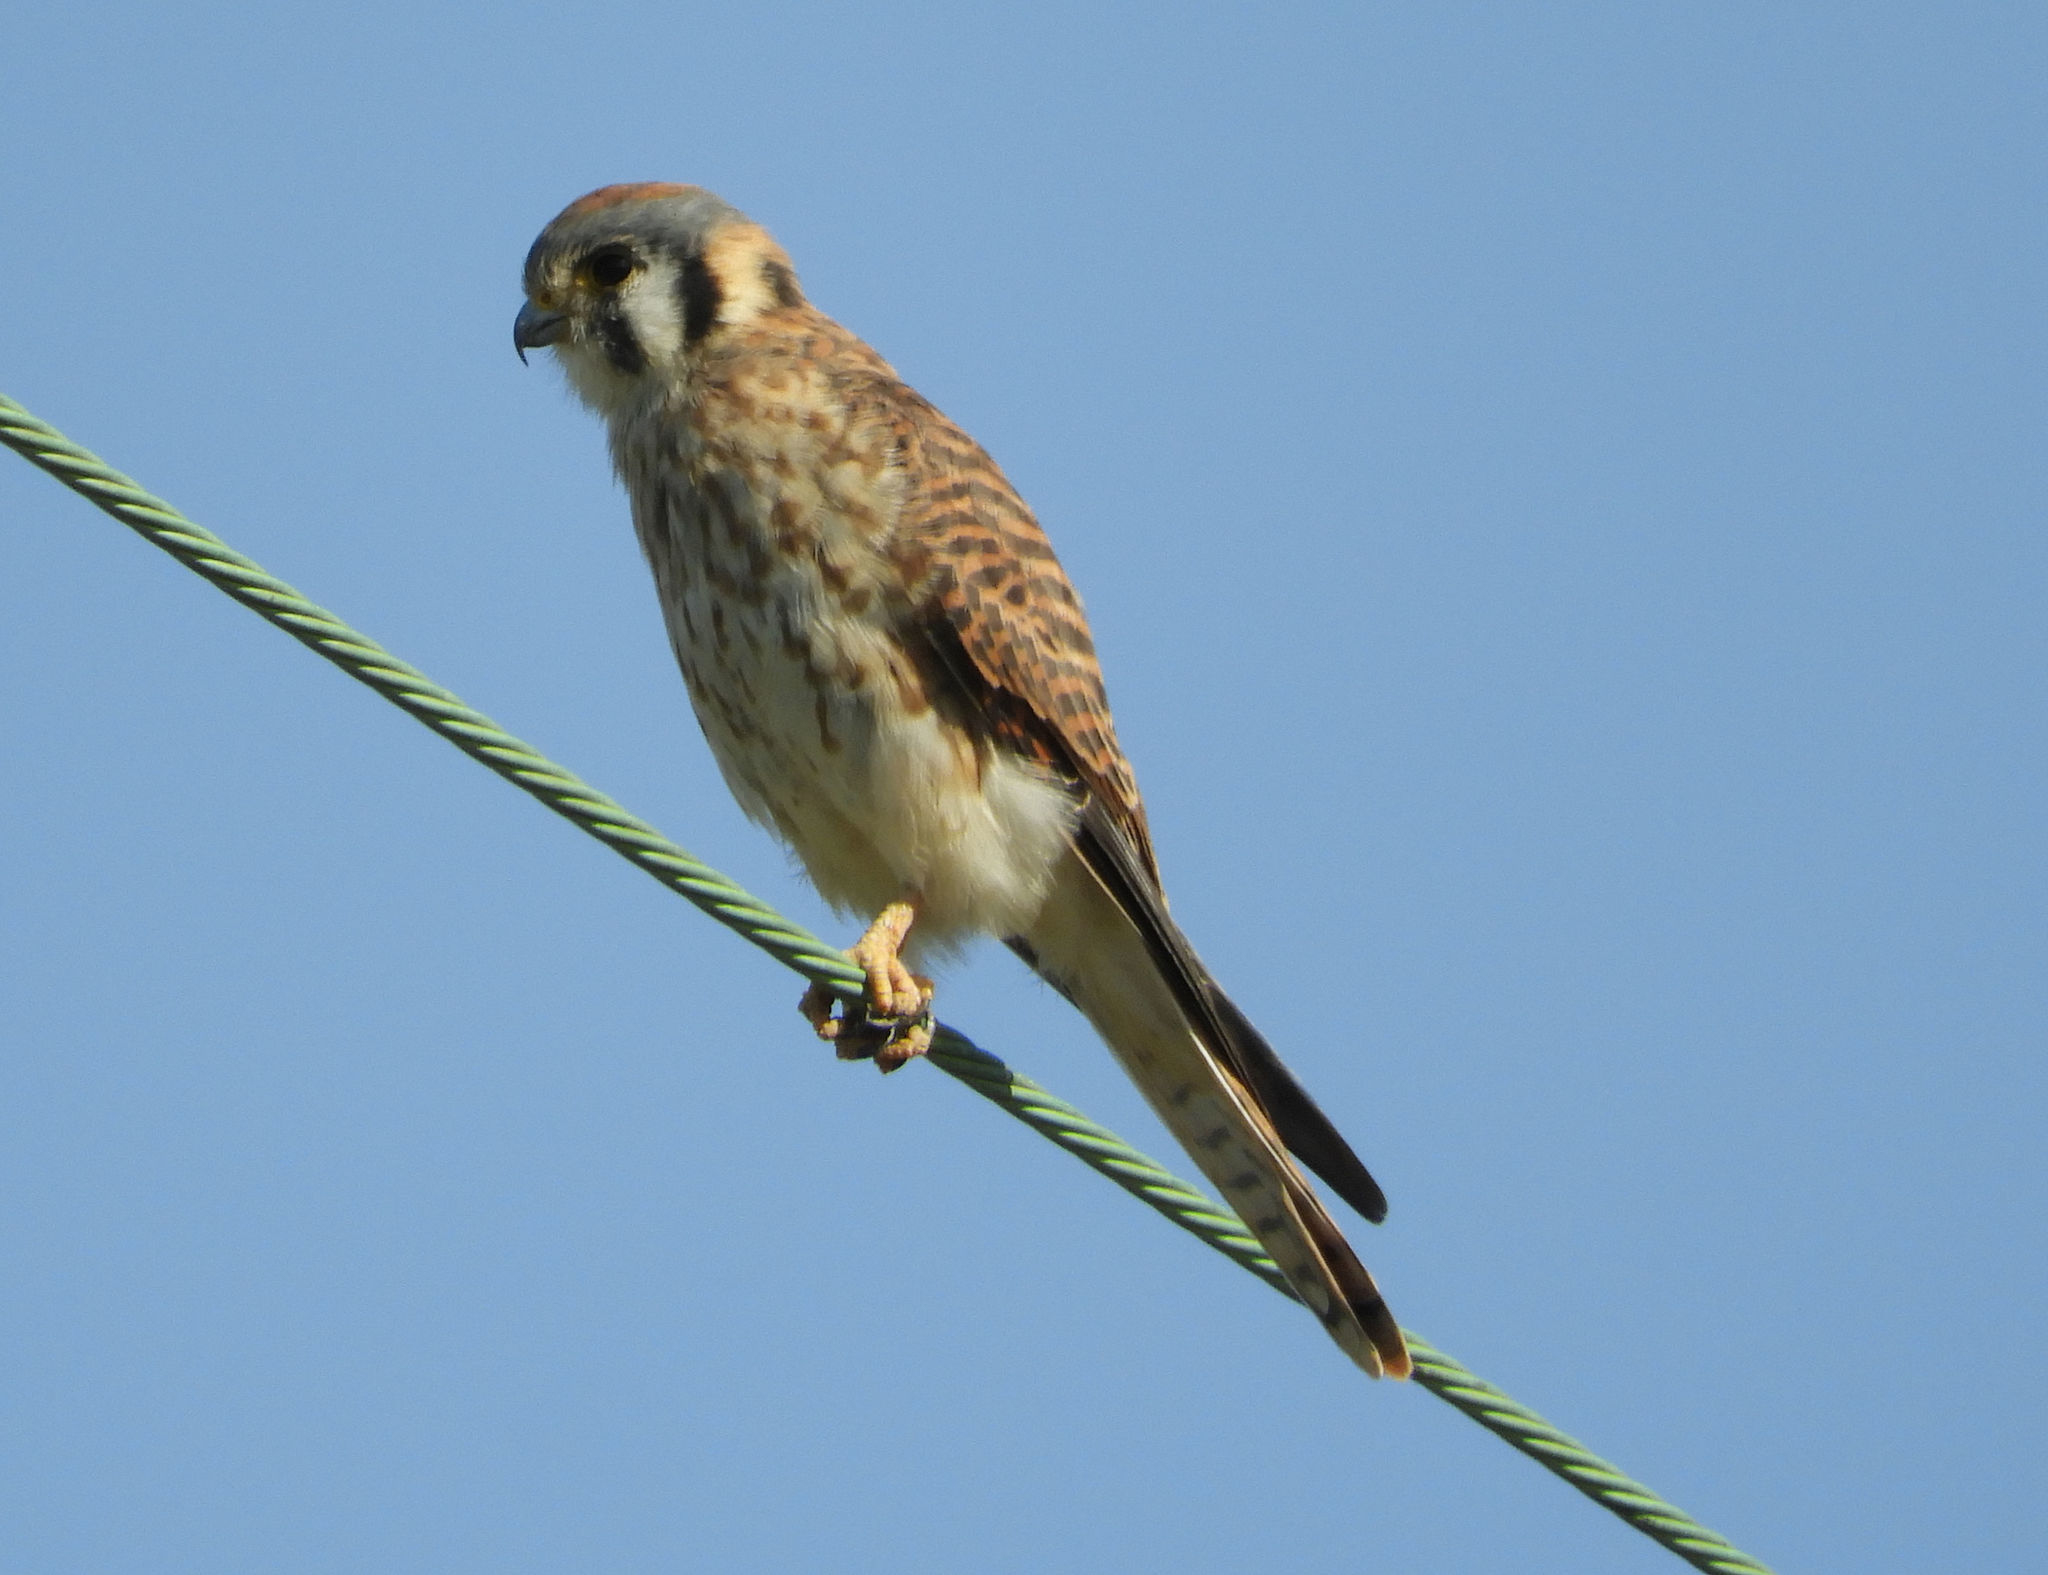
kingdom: Animalia
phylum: Chordata
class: Aves
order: Falconiformes
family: Falconidae
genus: Falco
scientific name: Falco sparverius
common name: American kestrel
